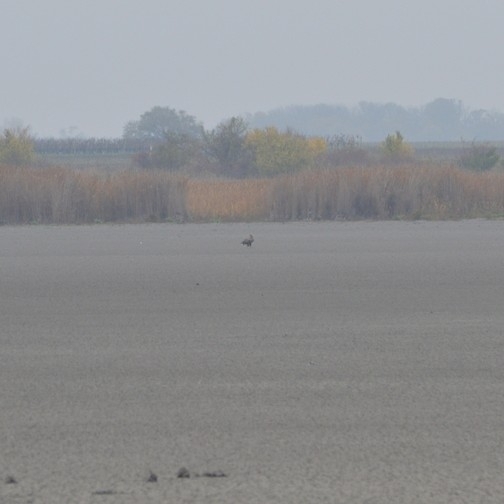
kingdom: Animalia
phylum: Chordata
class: Aves
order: Accipitriformes
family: Accipitridae
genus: Haliaeetus
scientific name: Haliaeetus albicilla
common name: White-tailed eagle
